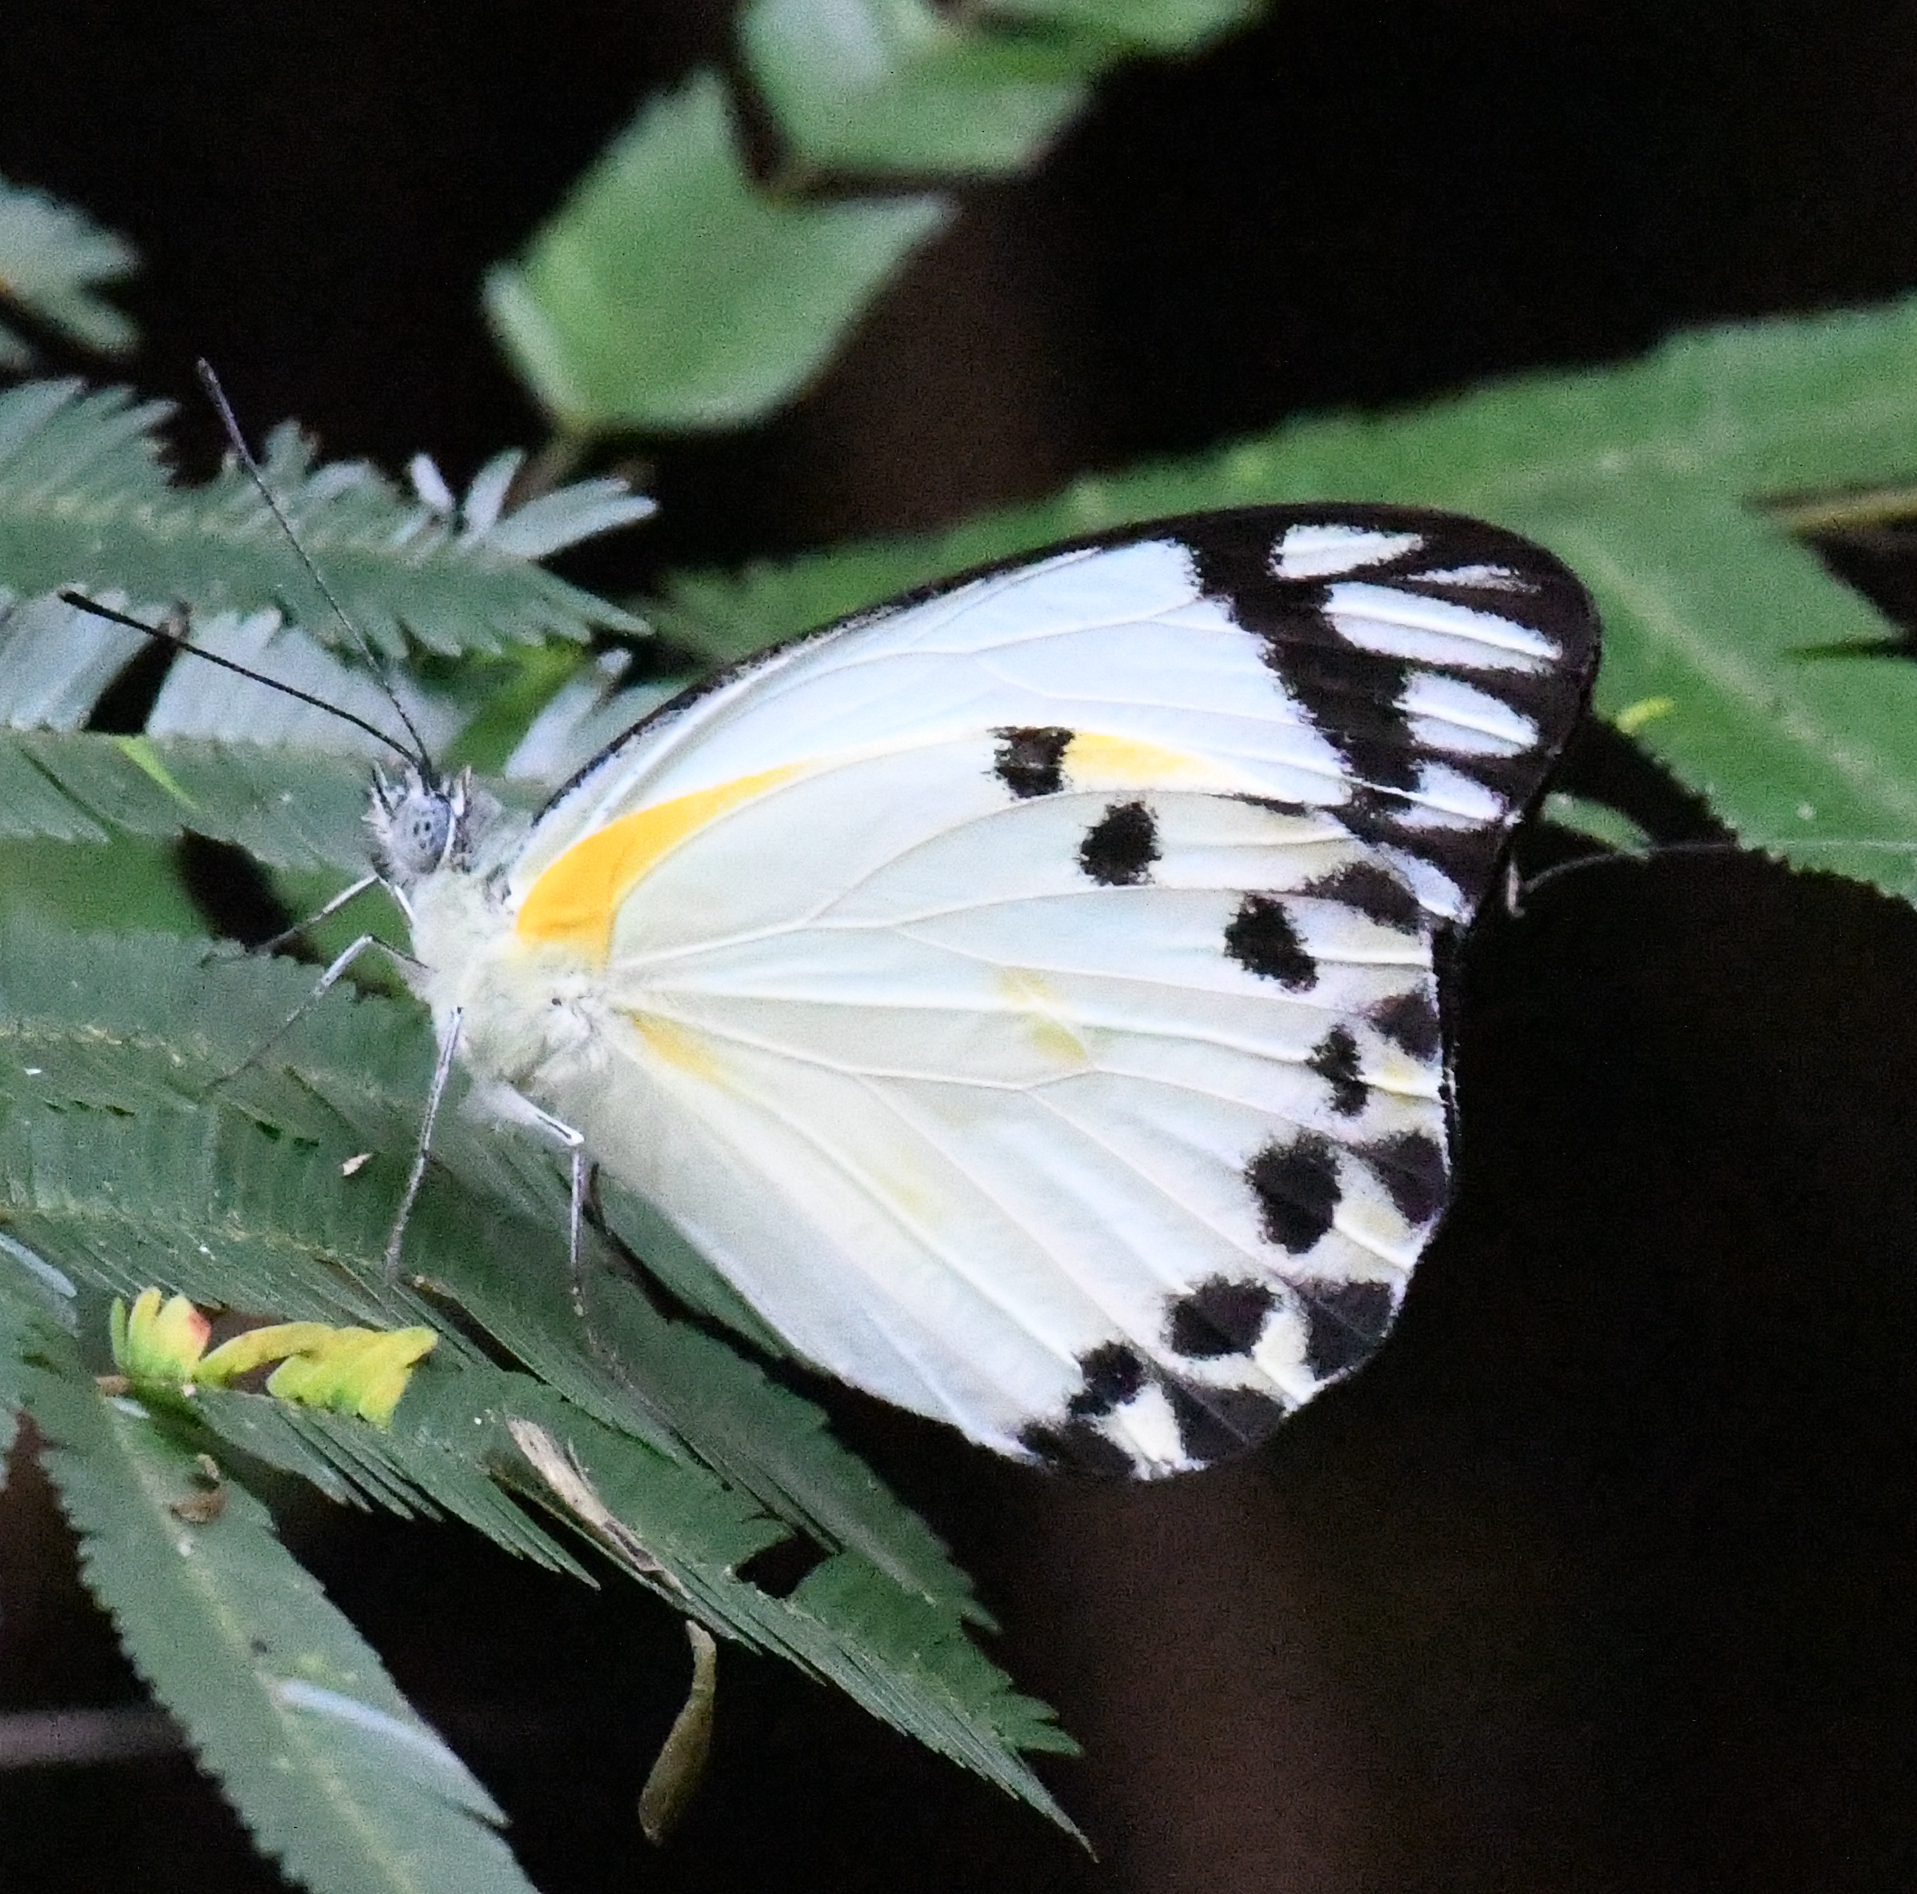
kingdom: Animalia
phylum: Arthropoda
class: Insecta
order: Lepidoptera
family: Pieridae
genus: Belenois
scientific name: Belenois calypso
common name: Calypso caper white
